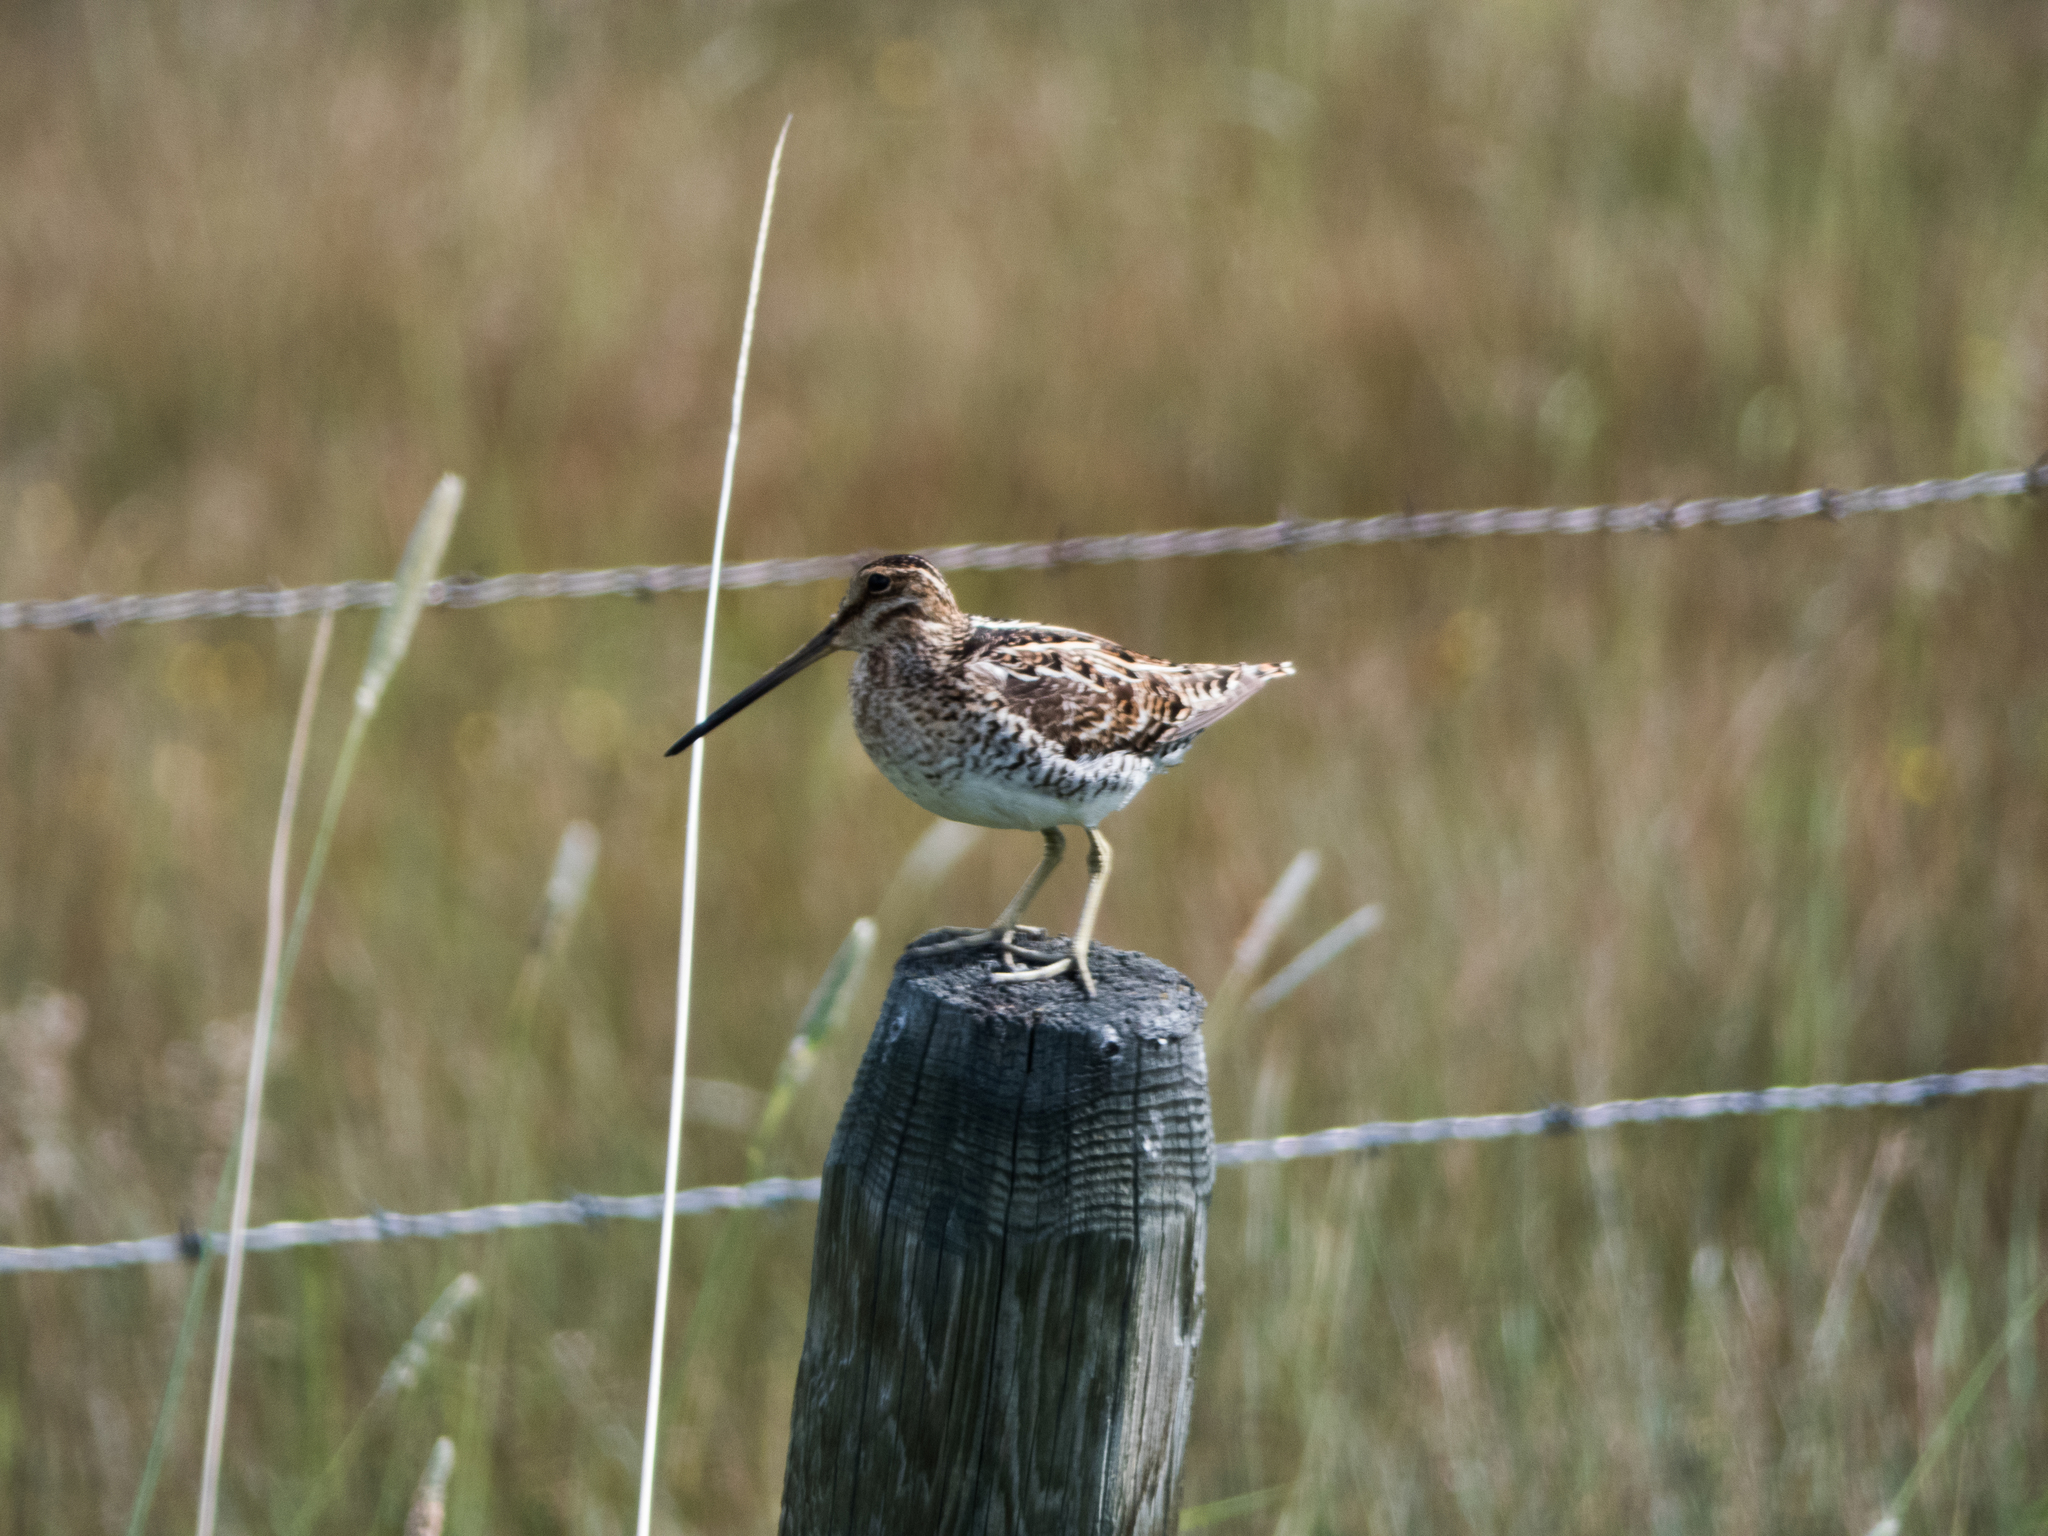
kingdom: Animalia
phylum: Chordata
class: Aves
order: Charadriiformes
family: Scolopacidae
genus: Gallinago
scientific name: Gallinago delicata
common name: Wilson's snipe
